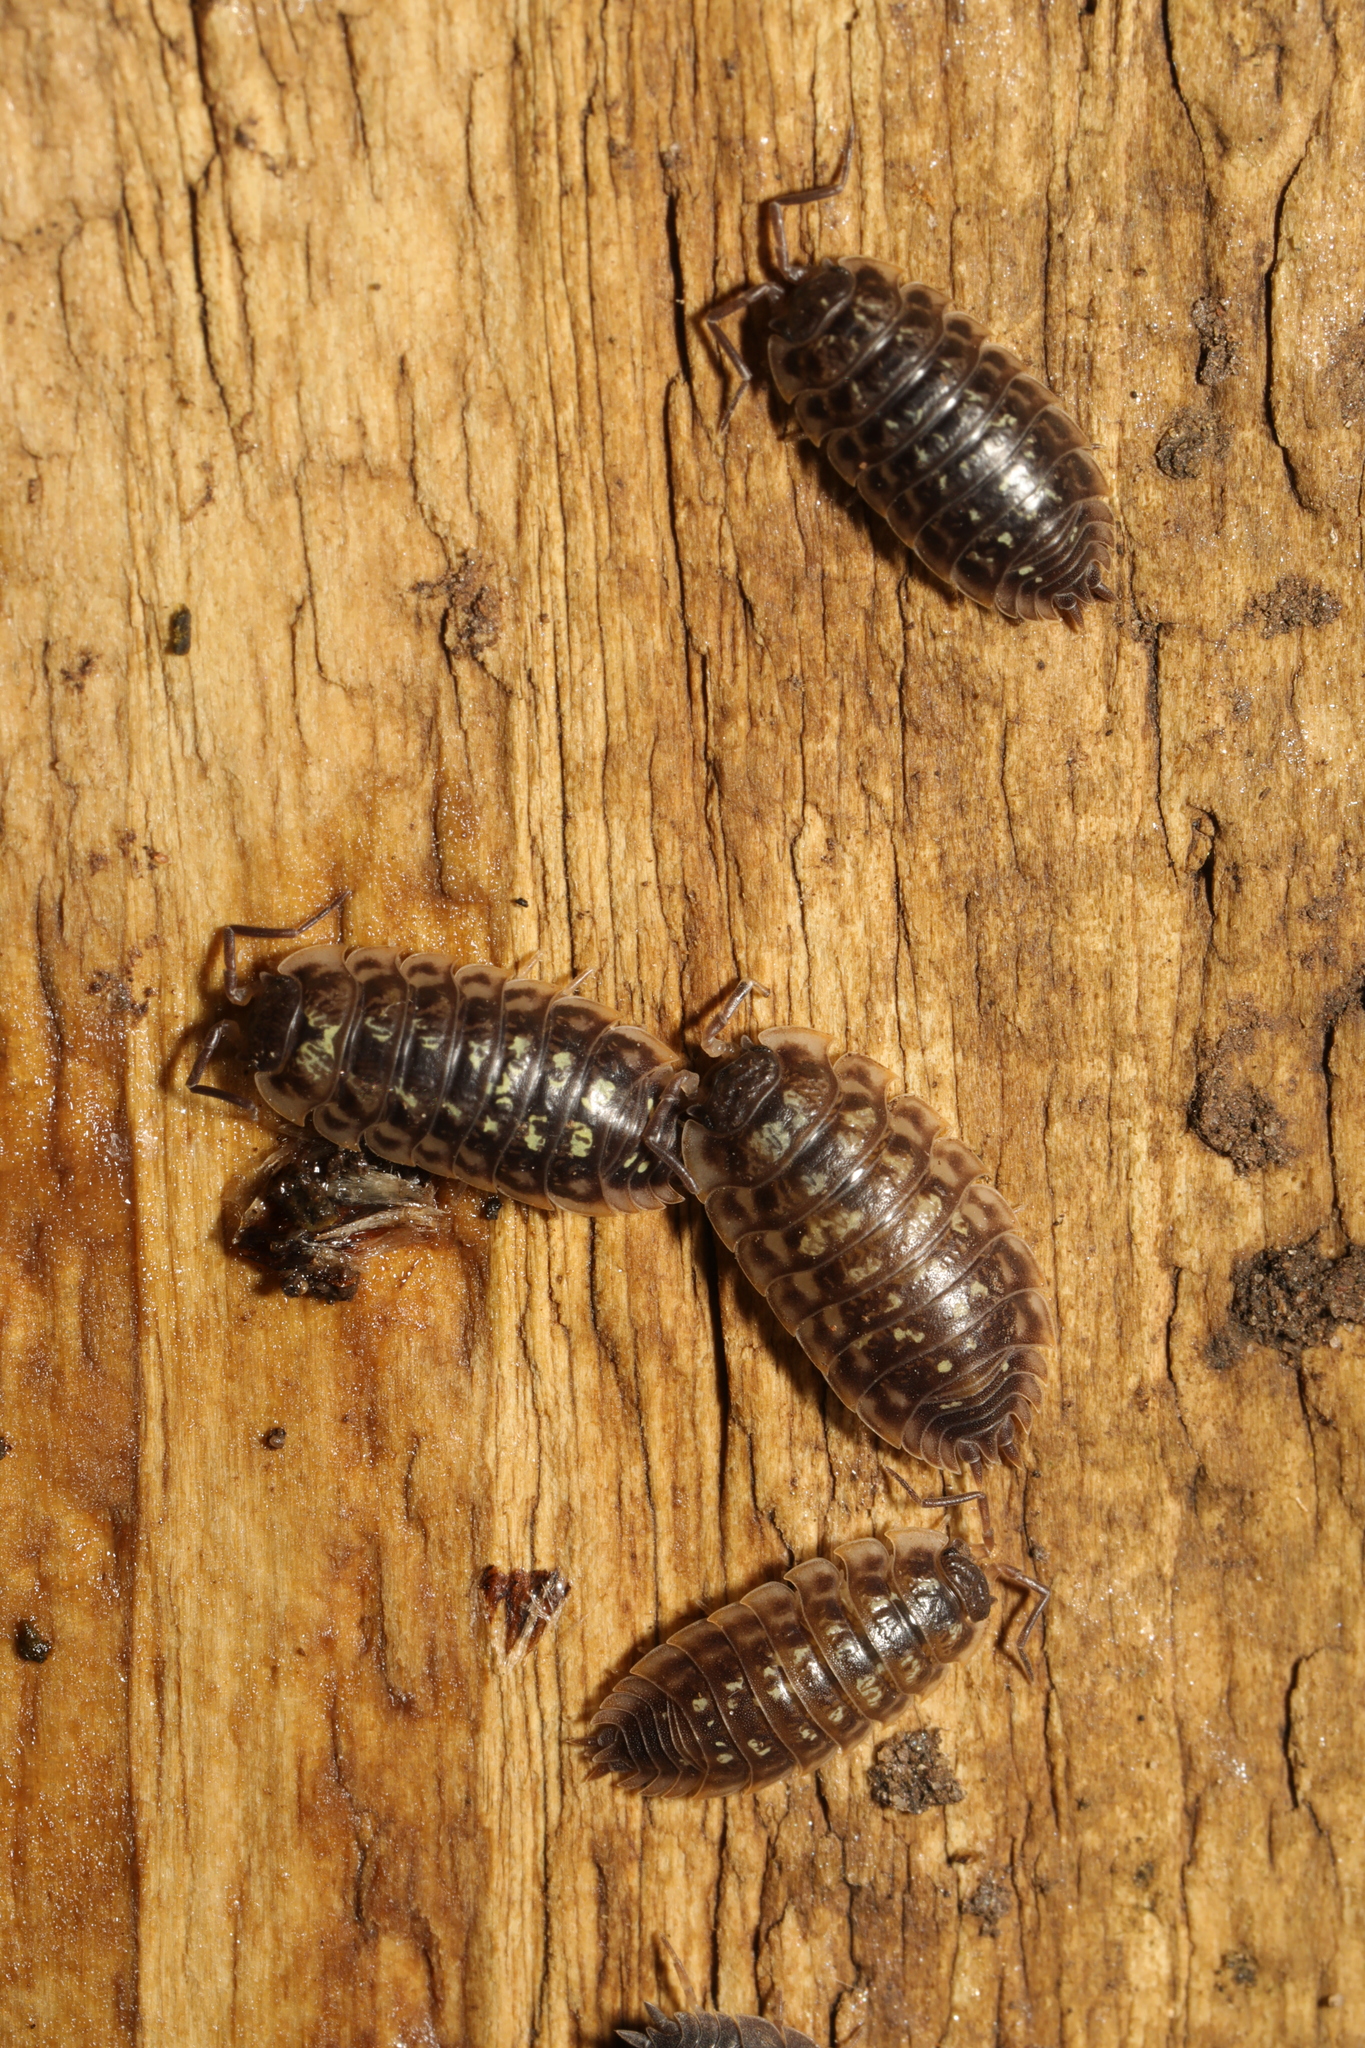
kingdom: Animalia
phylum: Arthropoda
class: Malacostraca
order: Isopoda
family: Oniscidae
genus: Oniscus
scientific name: Oniscus asellus
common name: Common shiny woodlouse
